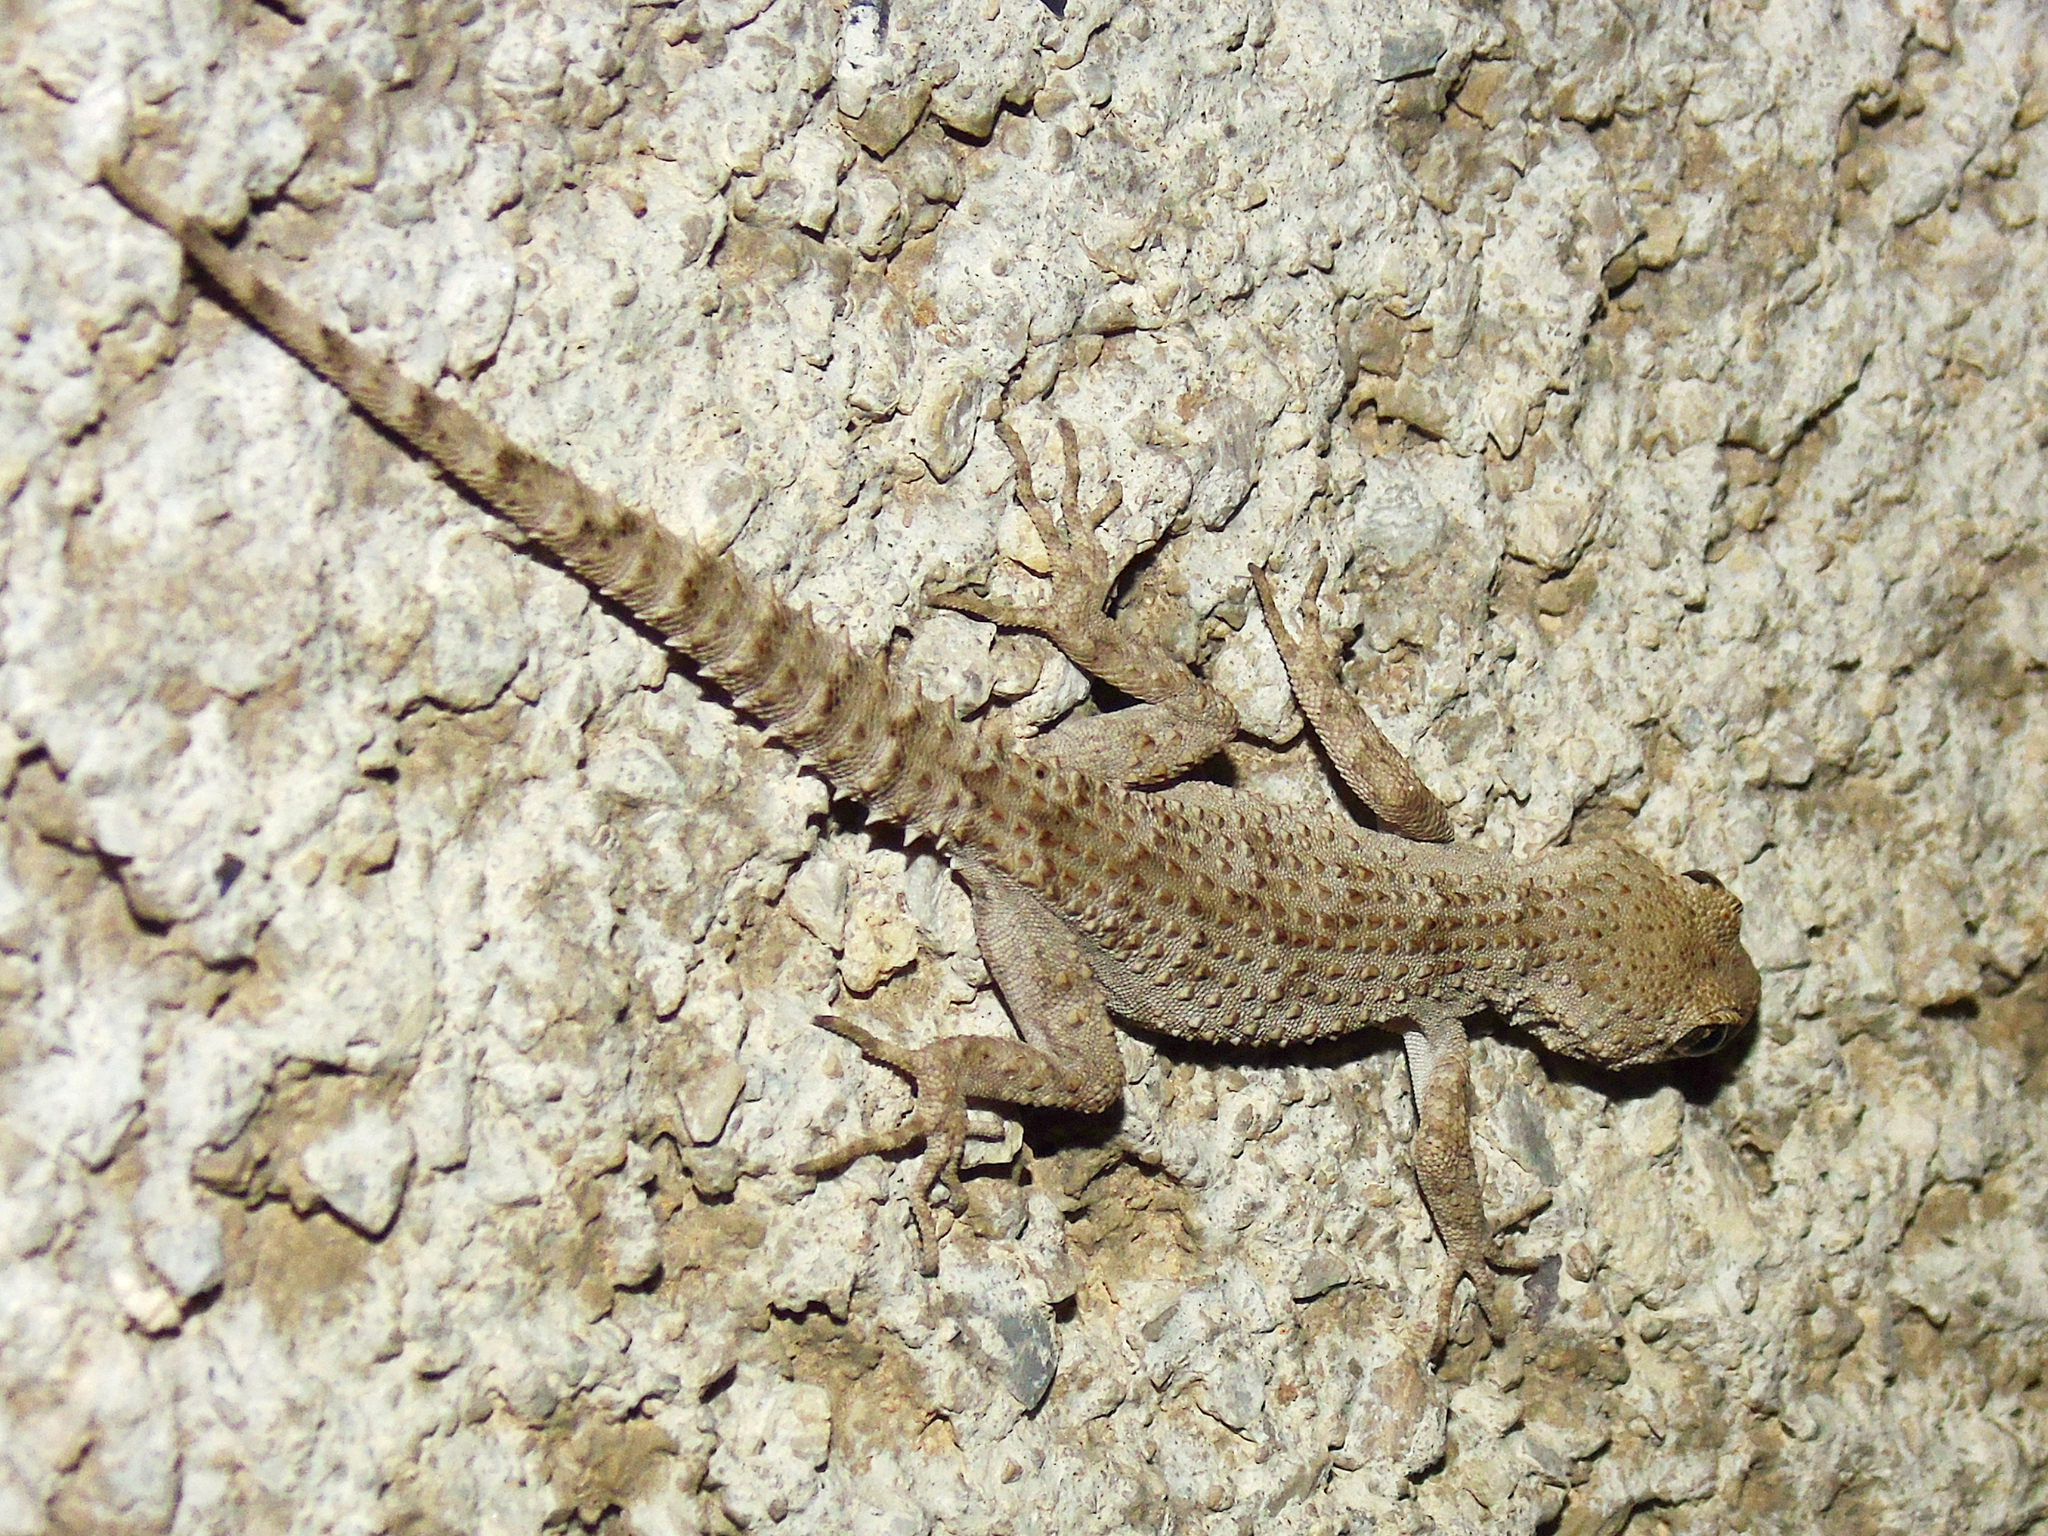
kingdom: Animalia
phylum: Chordata
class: Squamata
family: Gekkonidae
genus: Mediodactylus
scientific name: Mediodactylus kotschyi
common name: Kotschy's gecko
